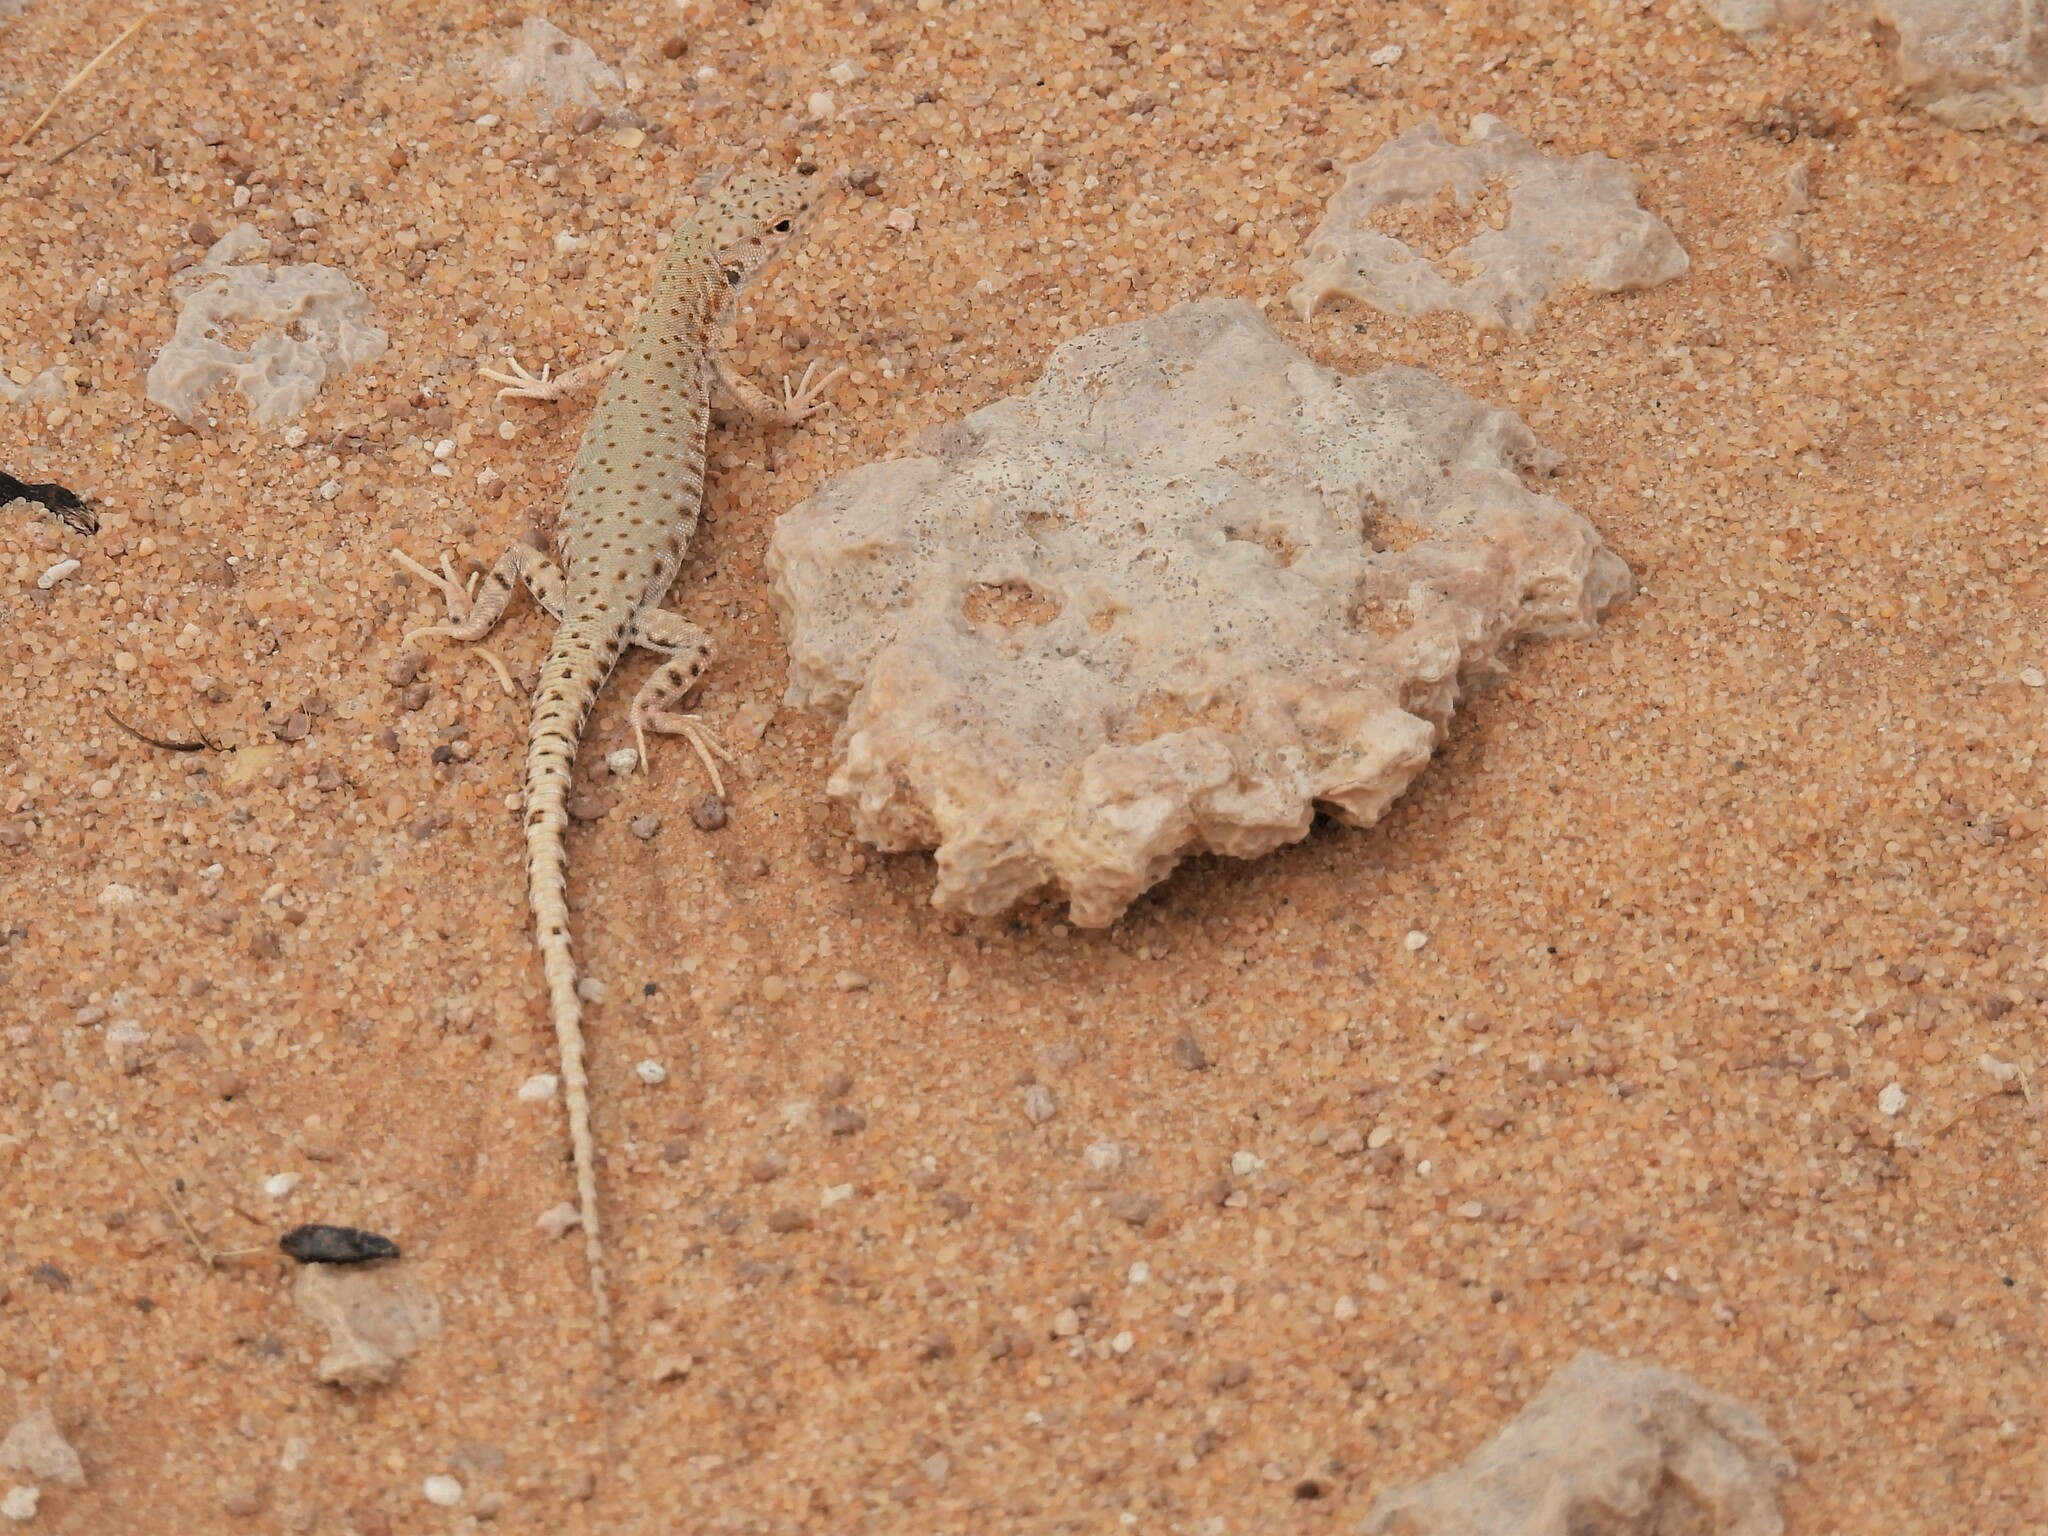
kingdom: Animalia
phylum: Chordata
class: Squamata
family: Lacertidae
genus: Mesalina
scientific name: Mesalina brevirostris
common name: Blanford's short-nosed desert lizard
